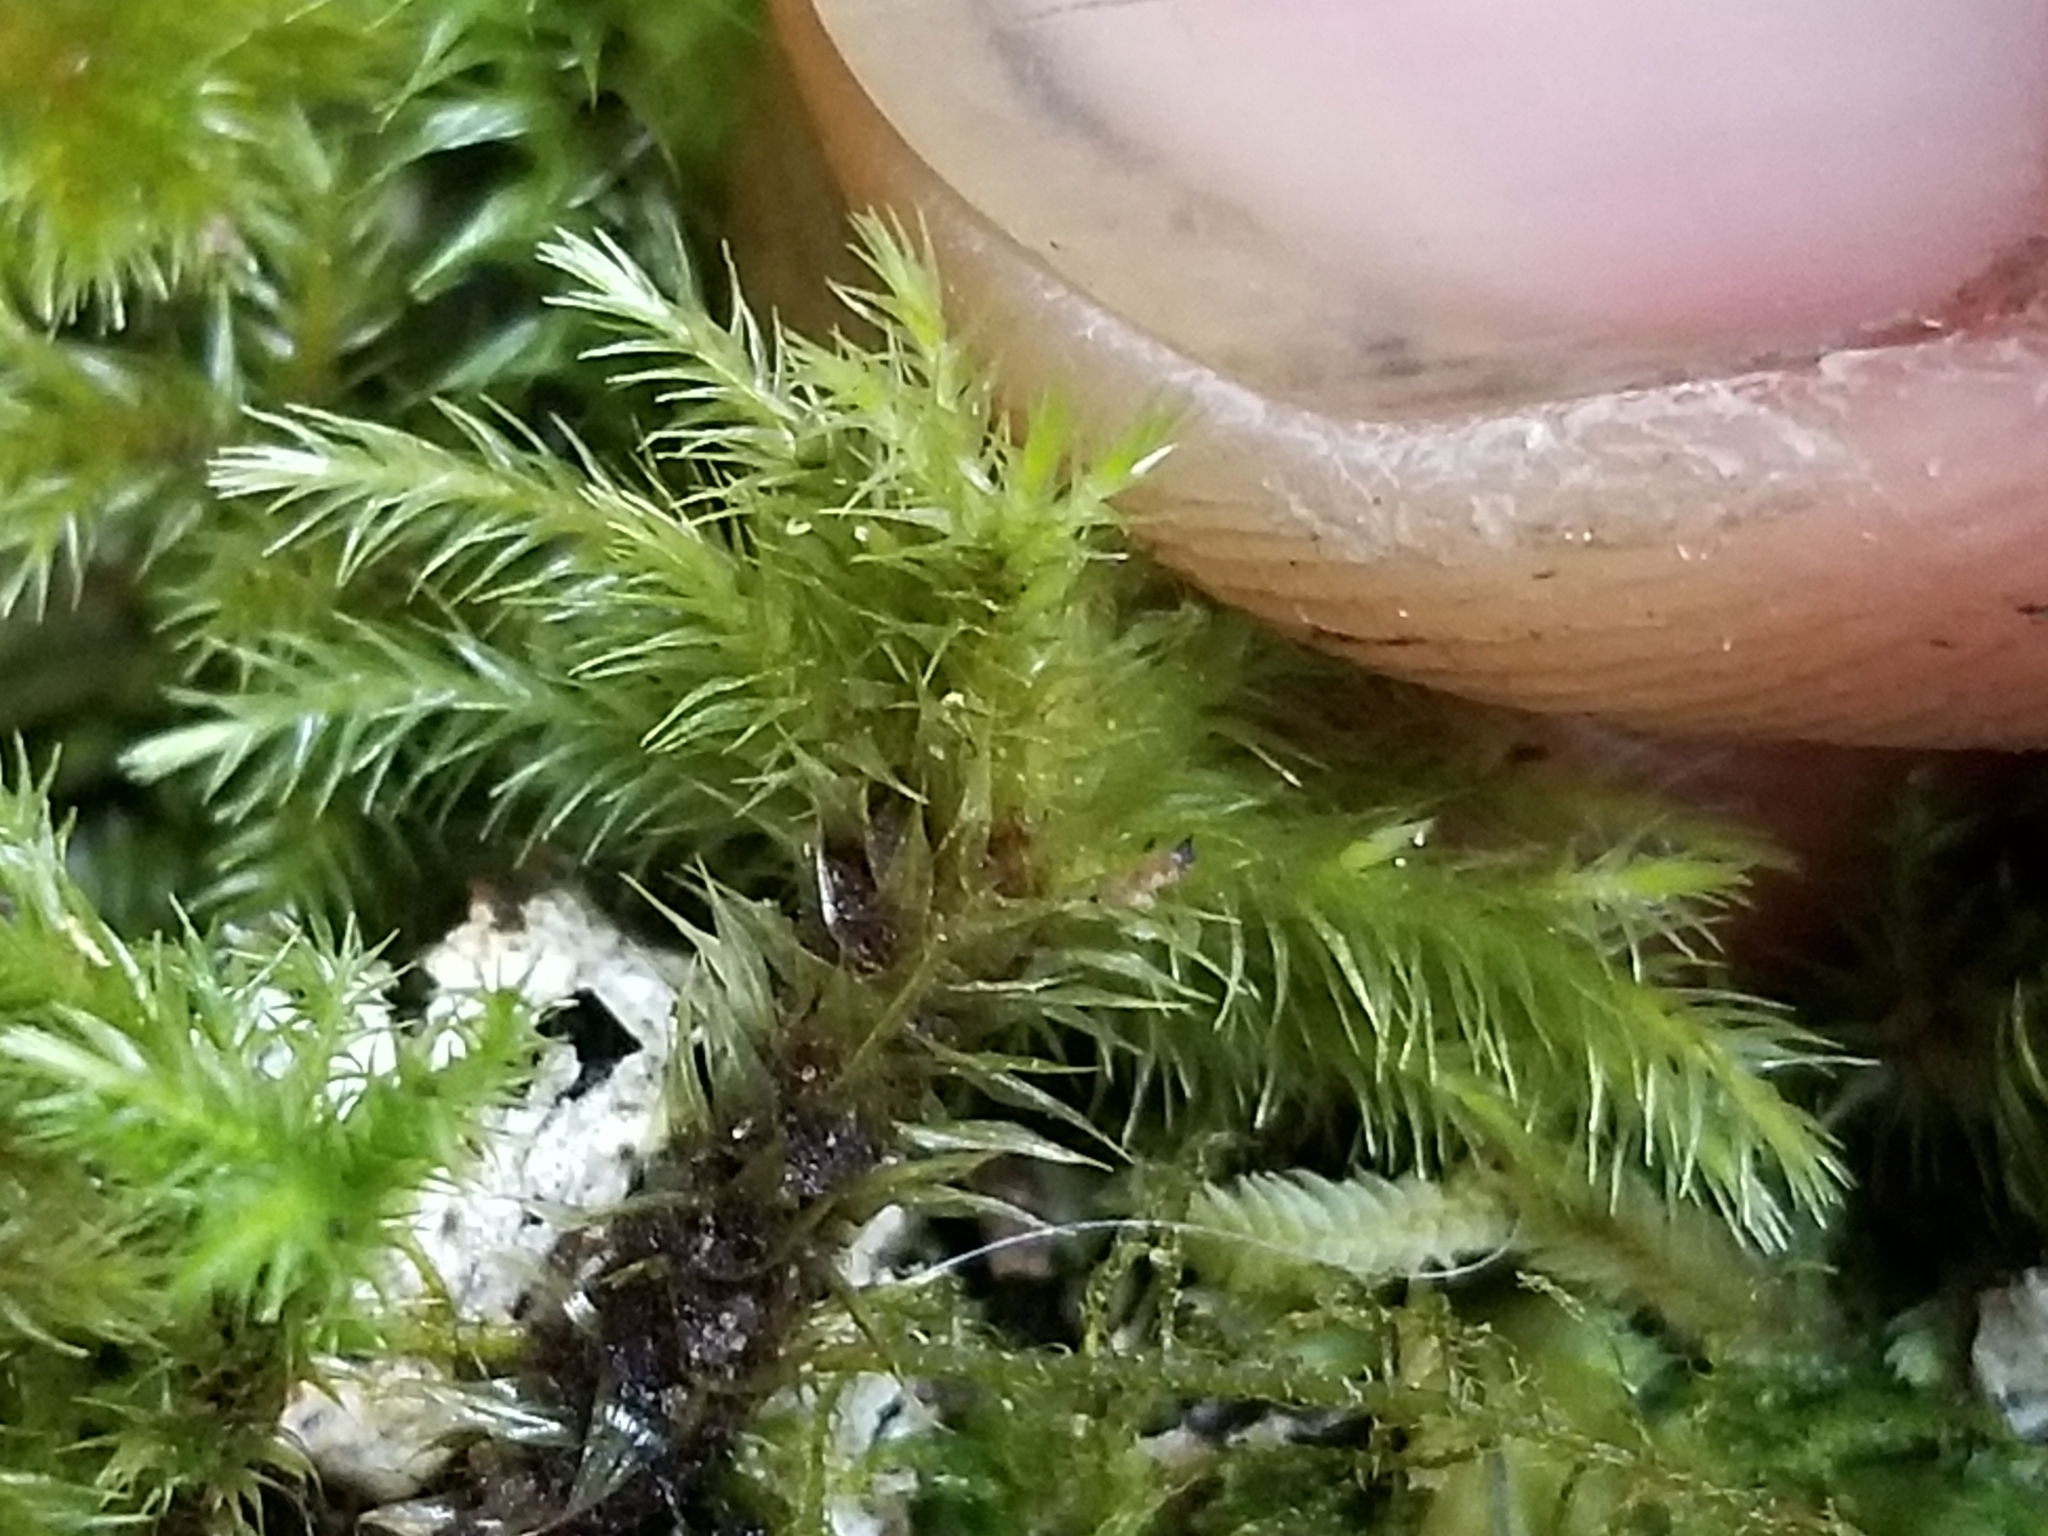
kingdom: Plantae
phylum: Bryophyta
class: Bryopsida
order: Hypnodendrales
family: Spiridentaceae
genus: Mniodendron
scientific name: Mniodendron colensoi
